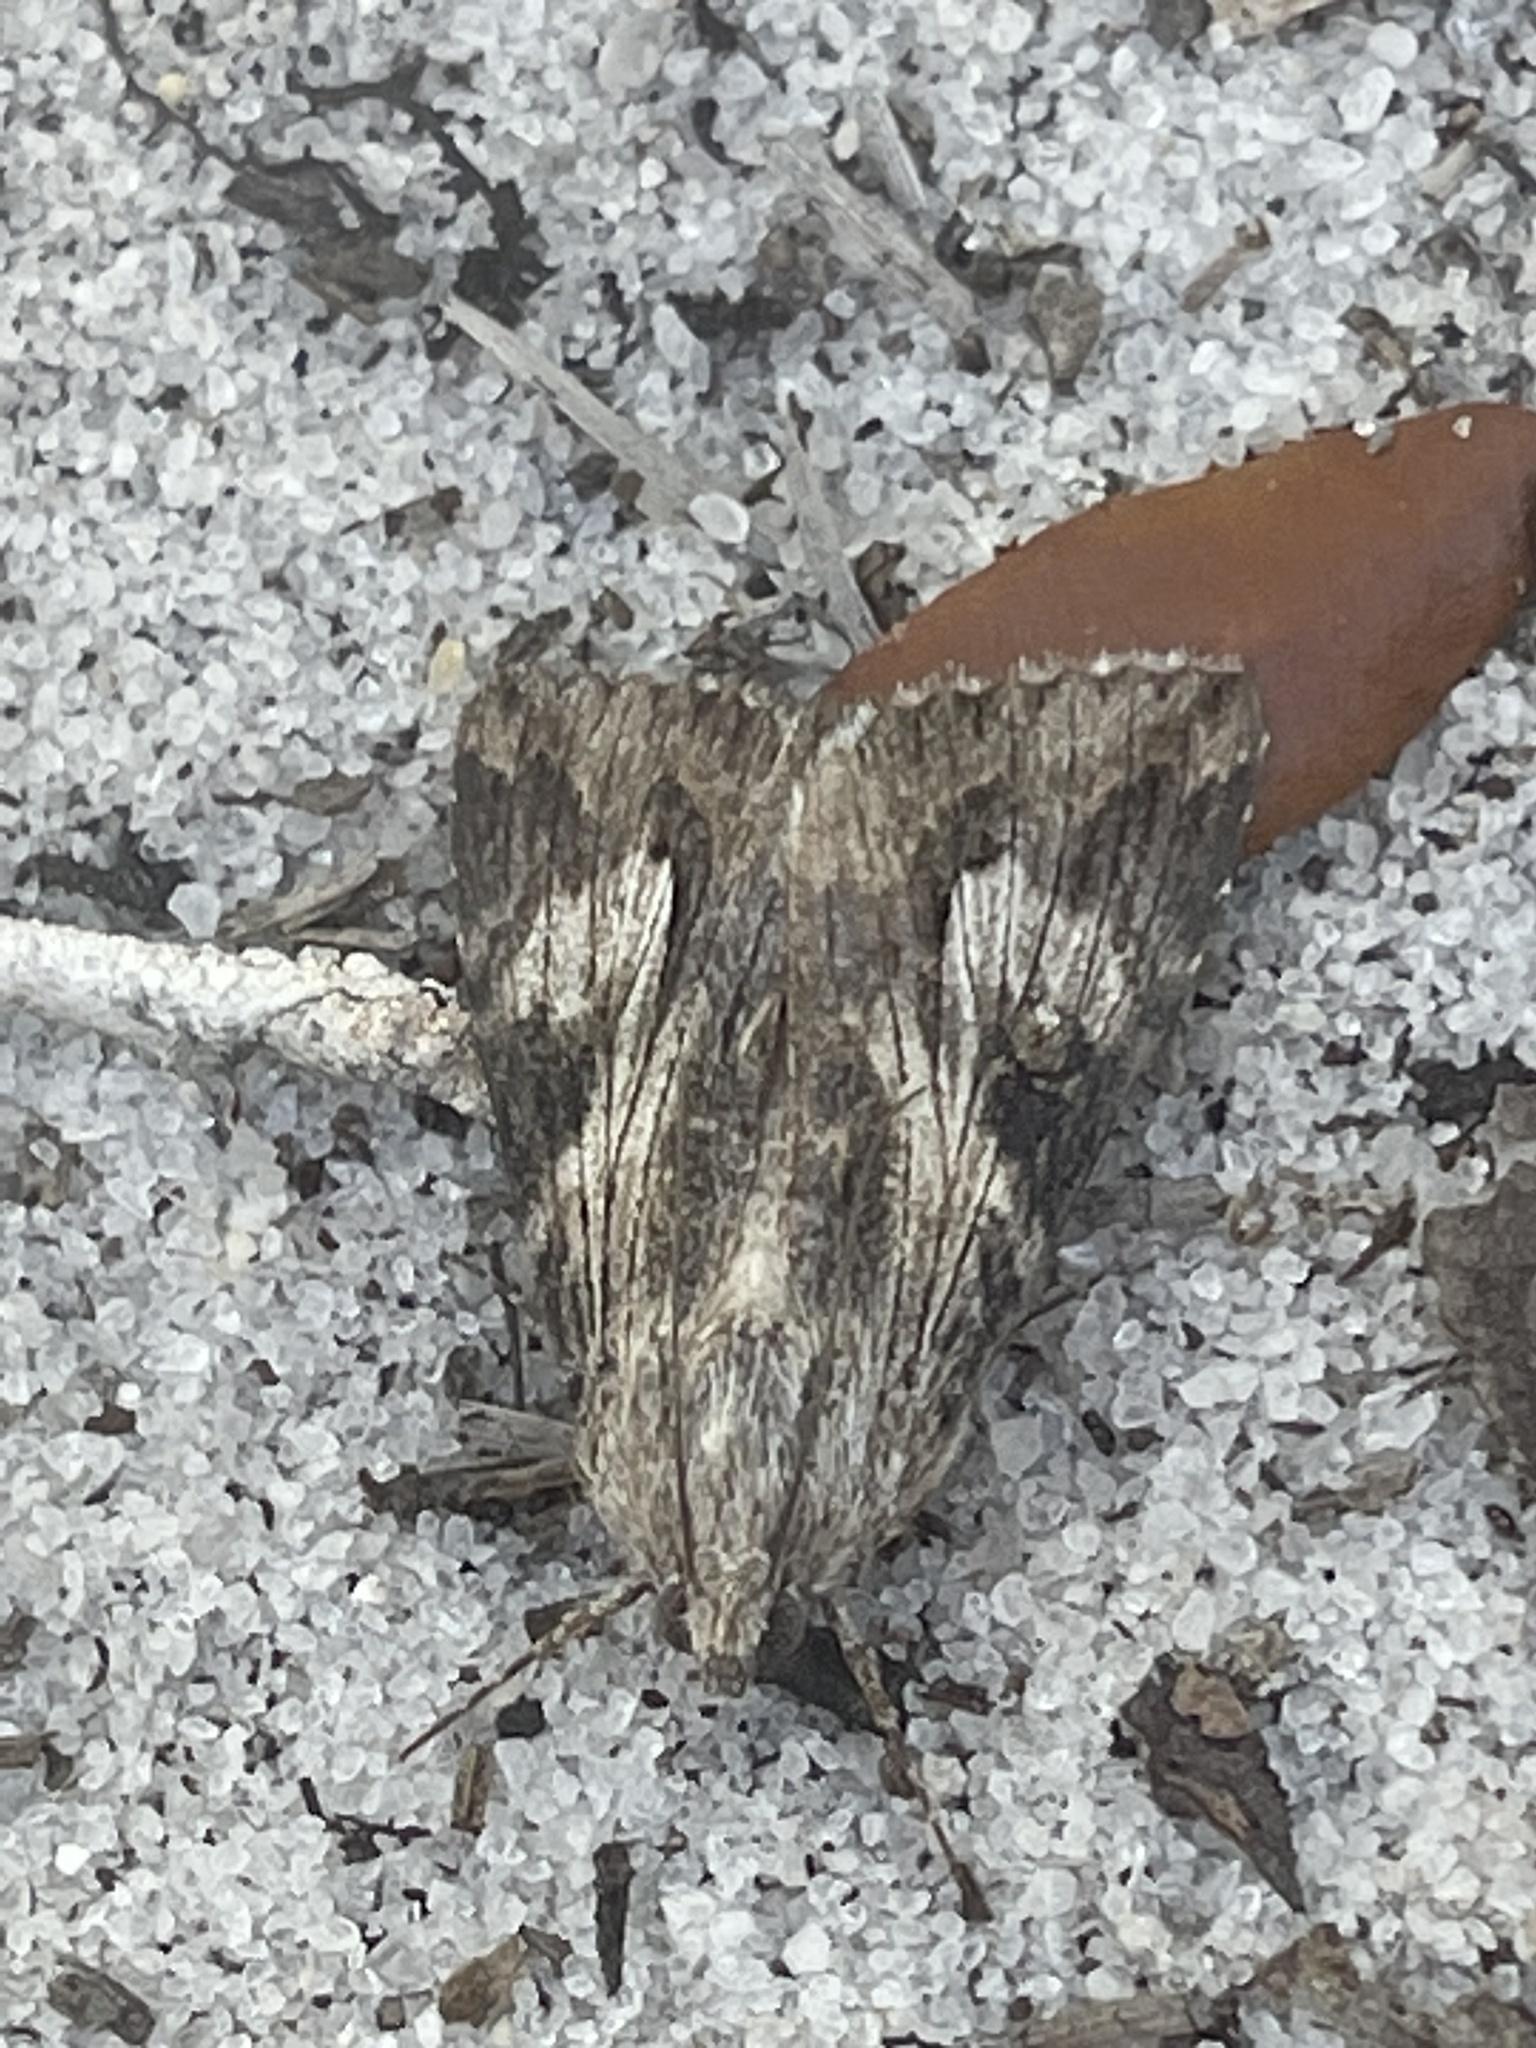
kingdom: Animalia
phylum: Arthropoda
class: Insecta
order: Lepidoptera
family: Erebidae
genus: Melipotis
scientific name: Melipotis jucunda
